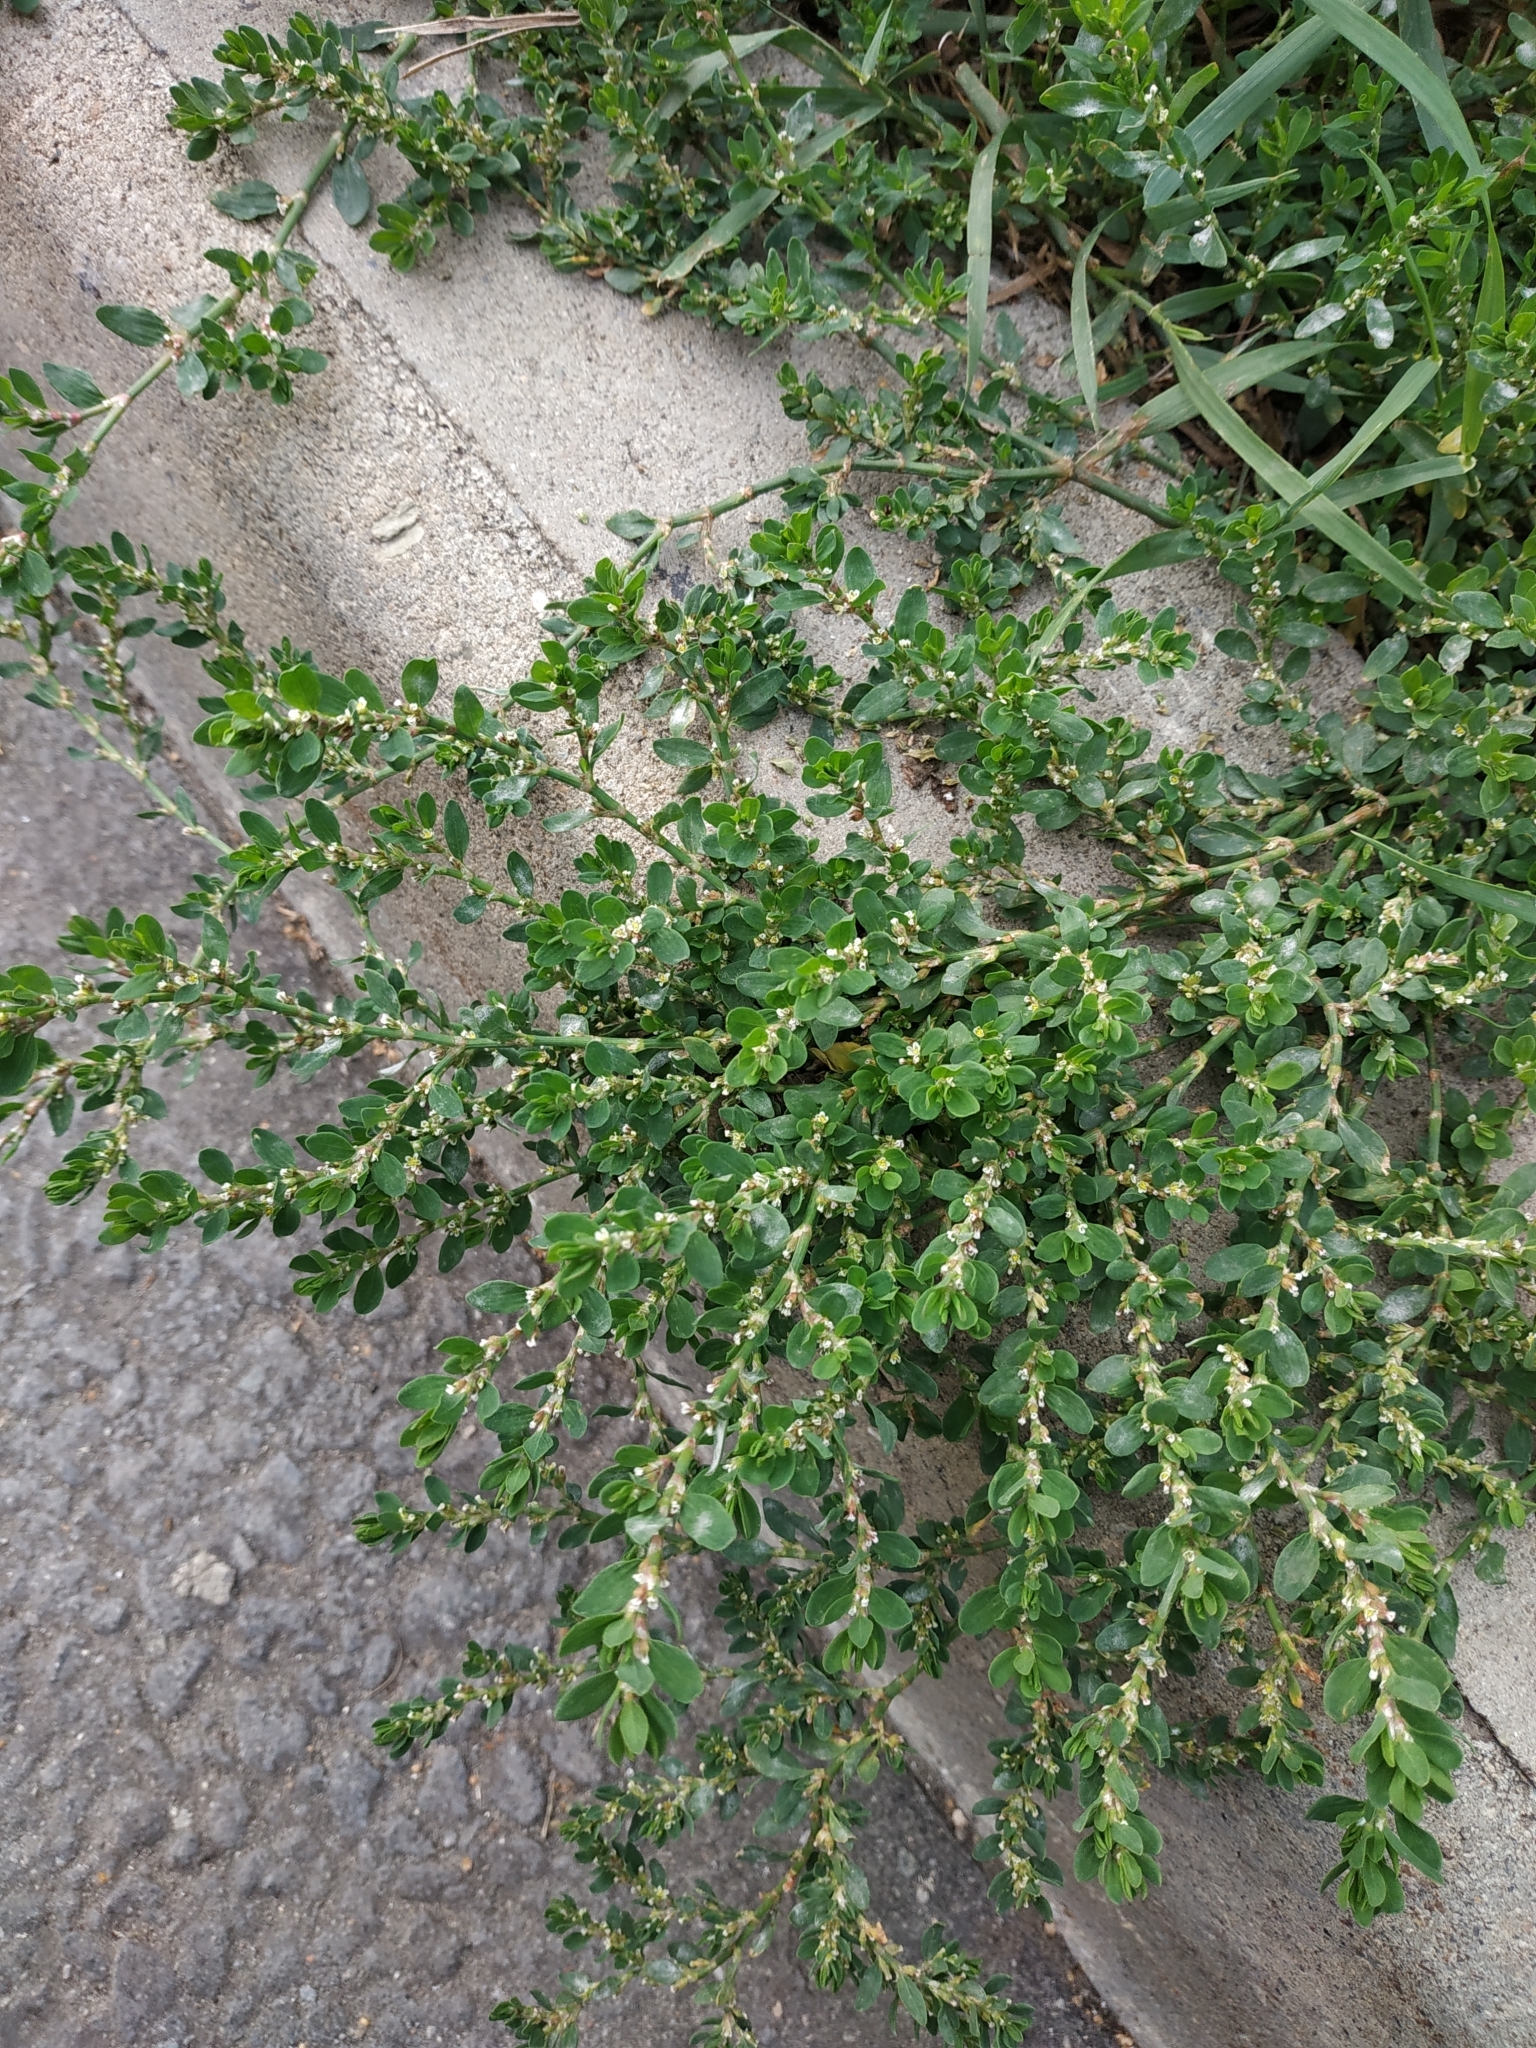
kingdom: Plantae
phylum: Tracheophyta
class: Magnoliopsida
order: Caryophyllales
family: Polygonaceae
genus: Polygonum
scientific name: Polygonum arenastrum
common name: Equal-leaved knotgrass
